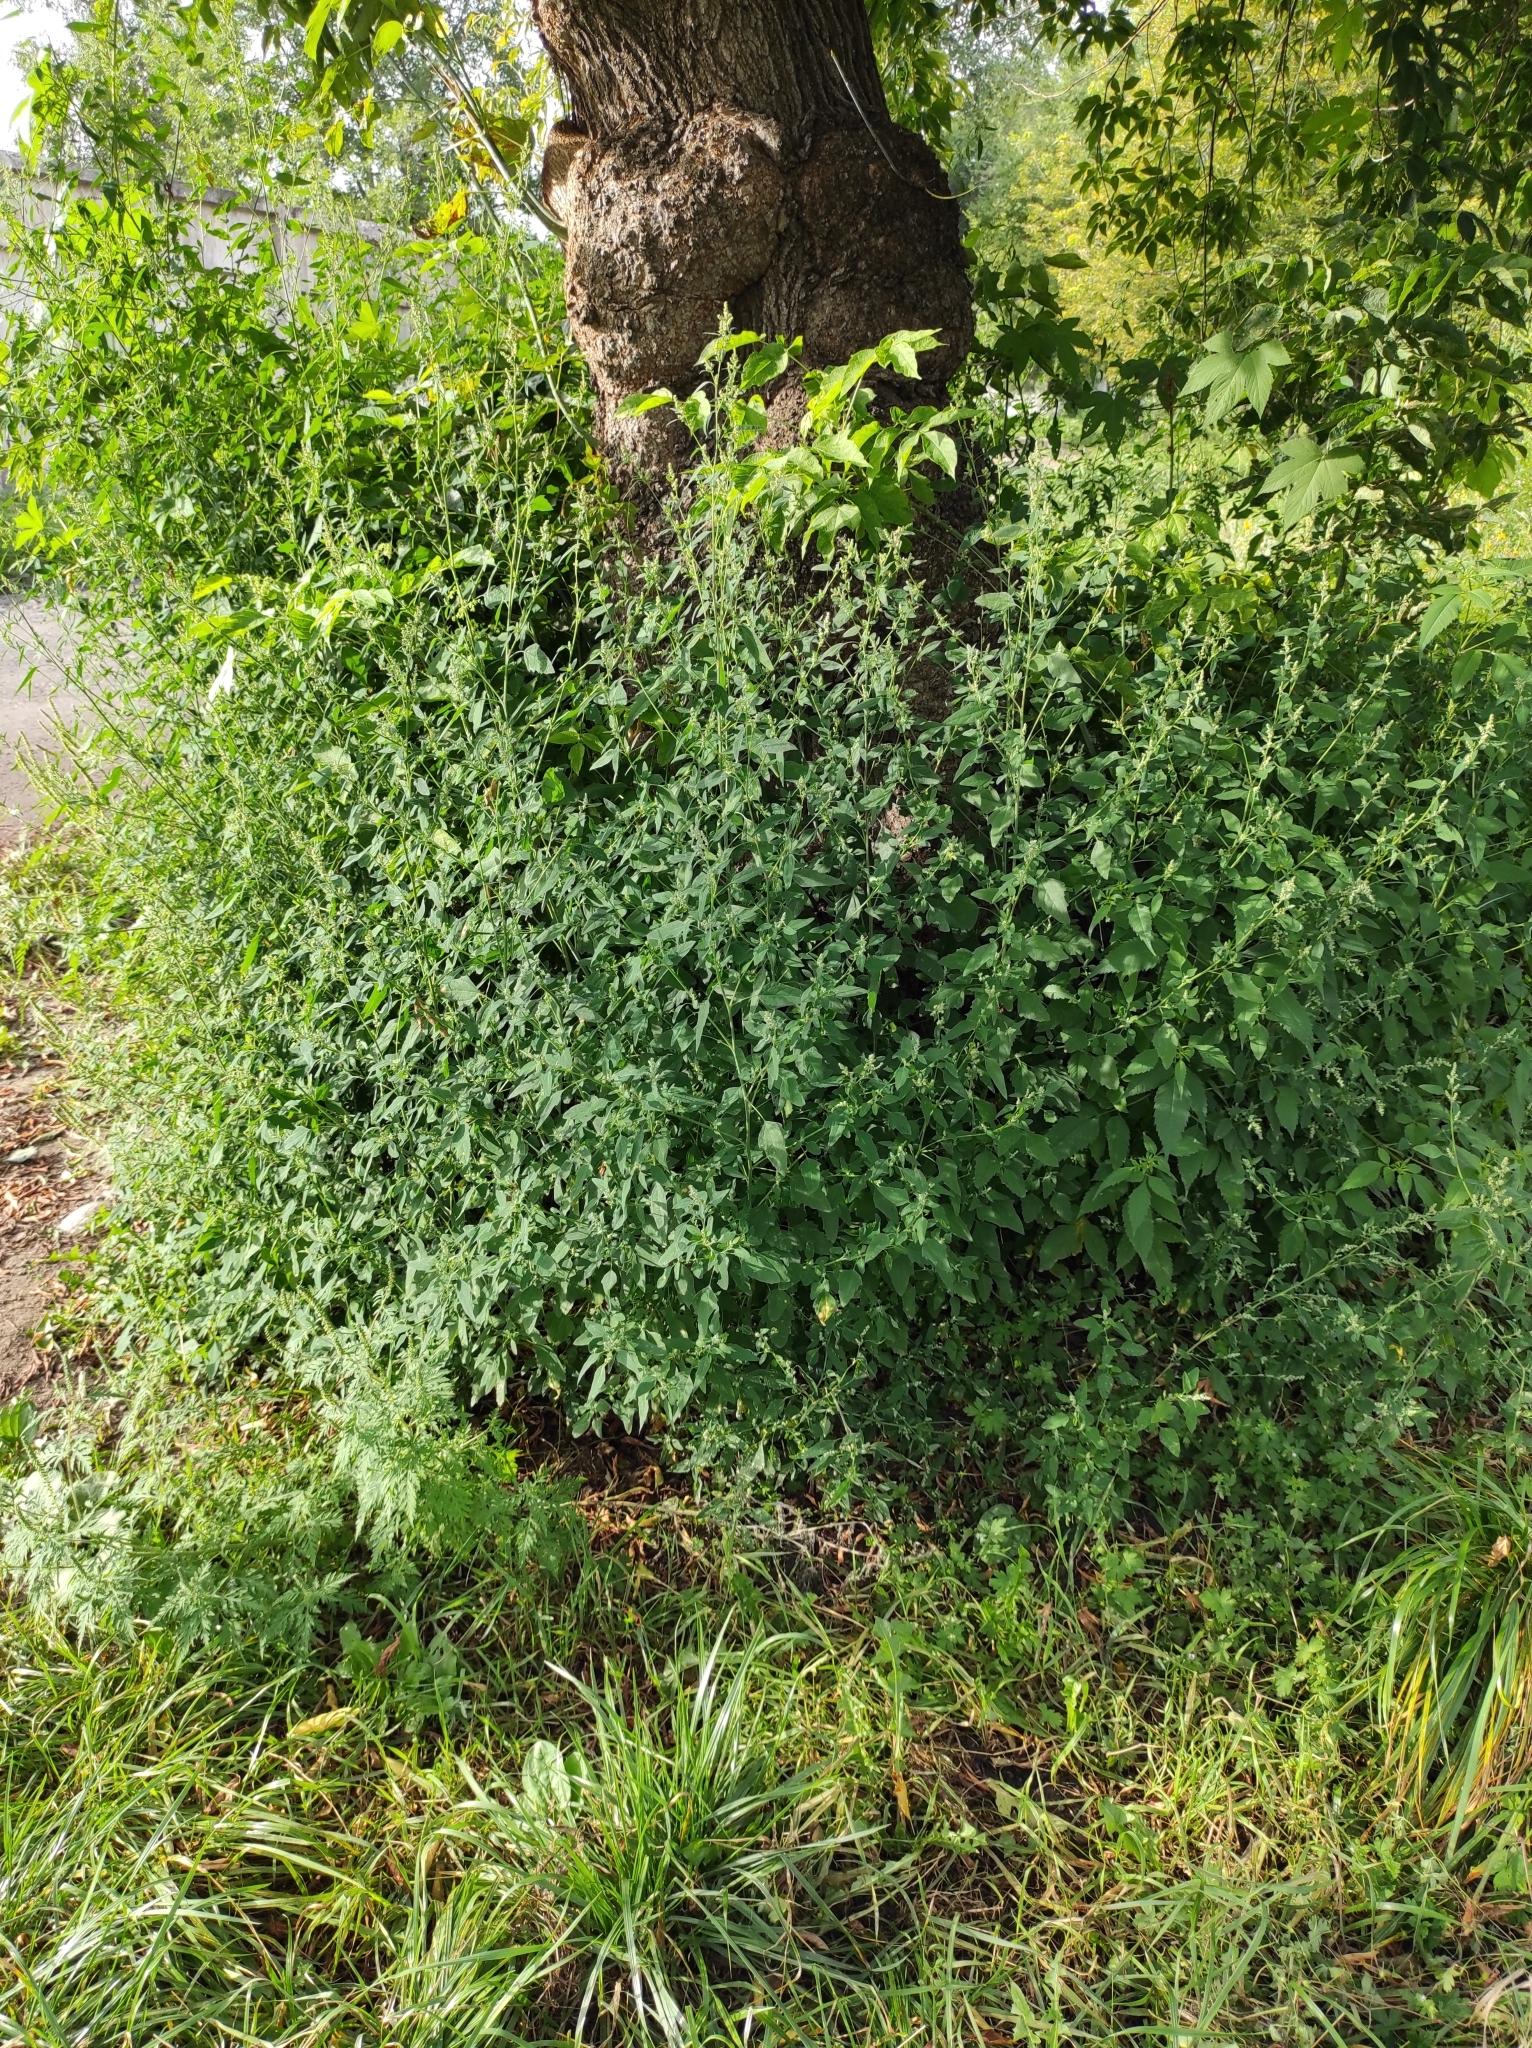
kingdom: Plantae
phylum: Tracheophyta
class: Magnoliopsida
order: Caryophyllales
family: Amaranthaceae
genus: Chenopodium
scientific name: Chenopodium album
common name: Fat-hen
